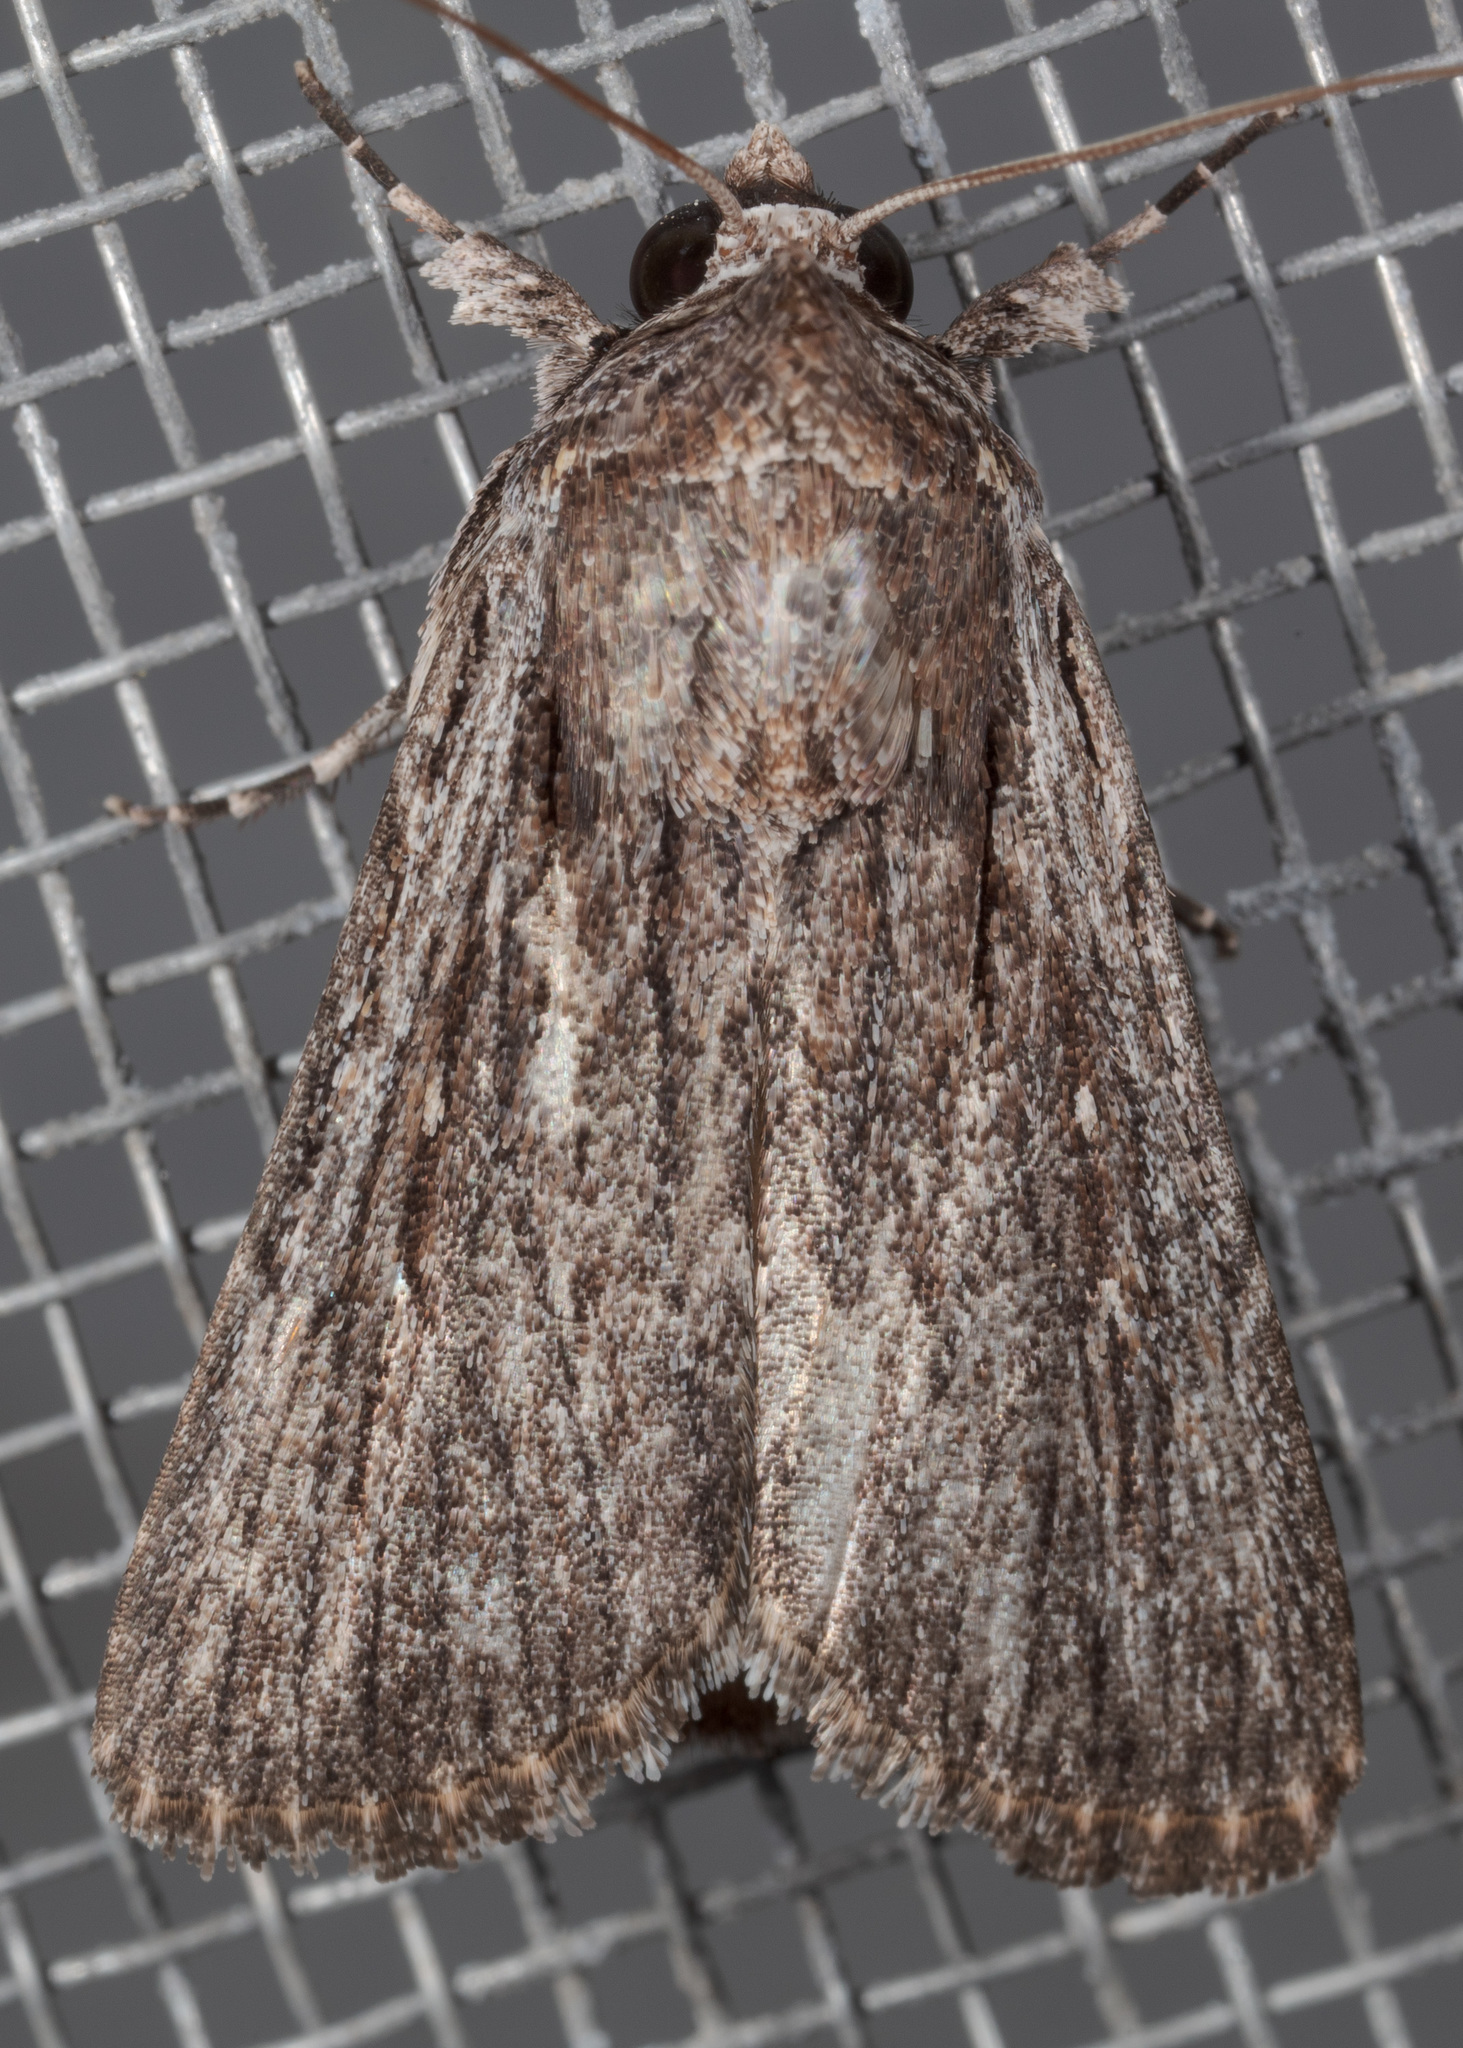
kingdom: Animalia
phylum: Arthropoda
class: Insecta
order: Lepidoptera
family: Noctuidae
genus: Neogalea
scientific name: Neogalea sunia
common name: Lantana stick caterpillar
